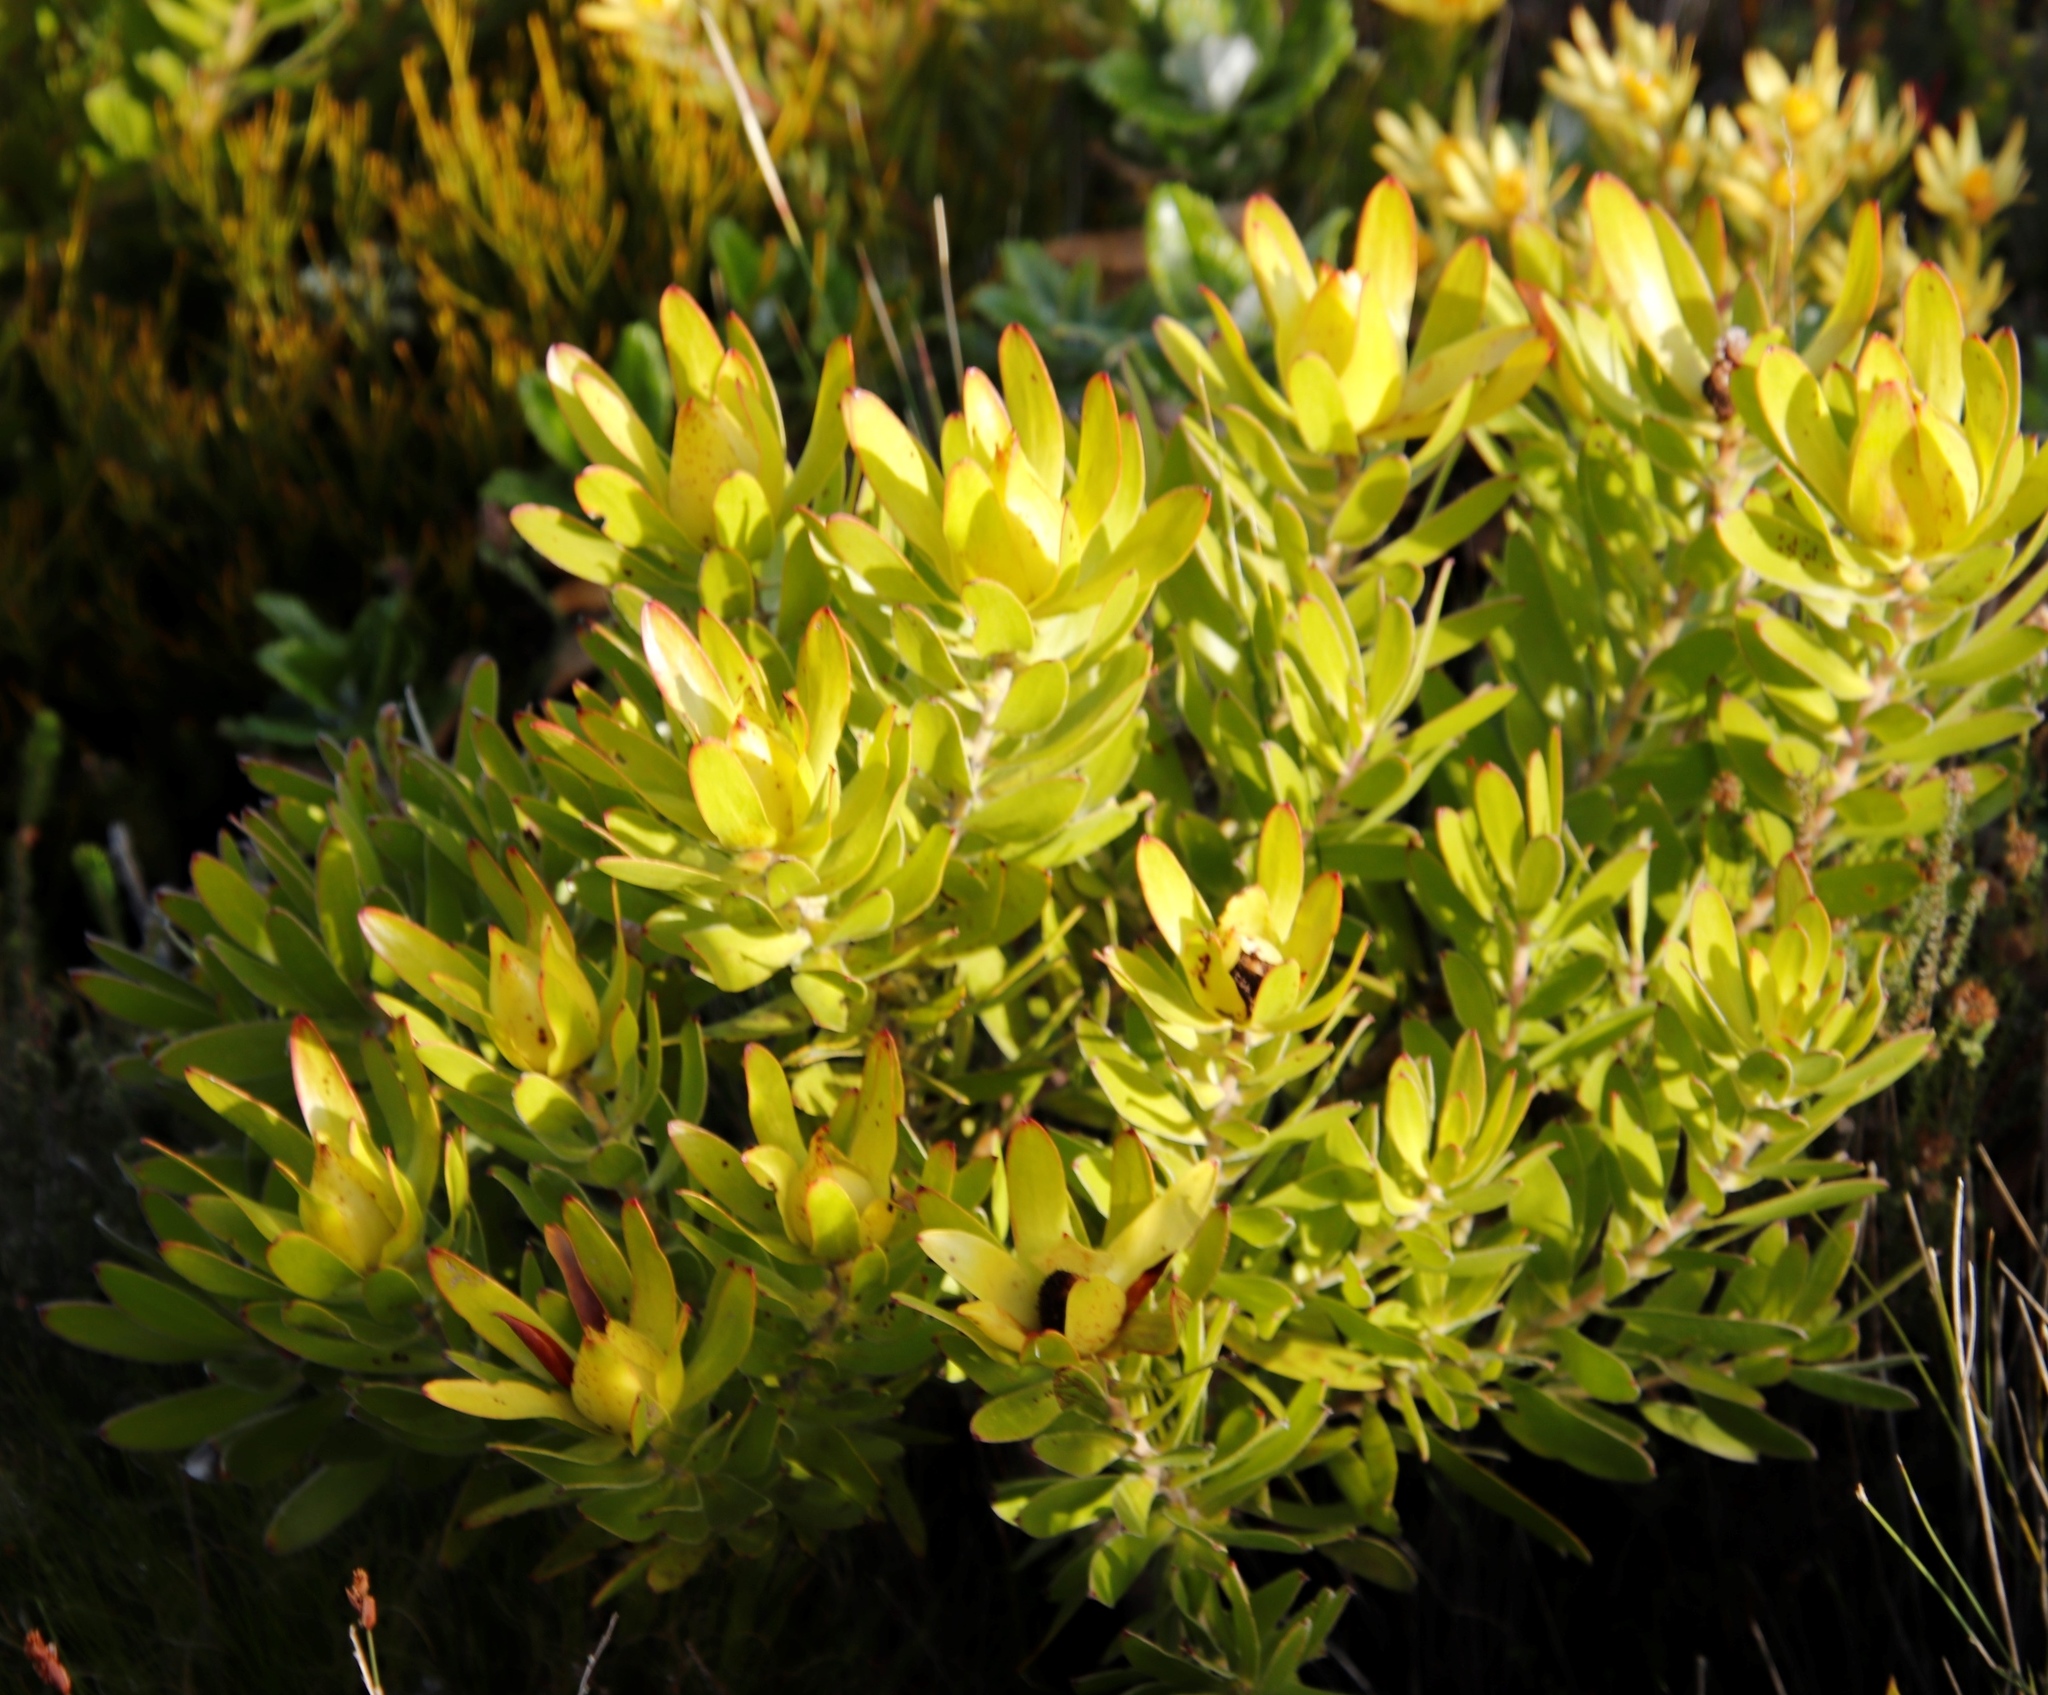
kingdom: Plantae
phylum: Tracheophyta
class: Magnoliopsida
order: Proteales
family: Proteaceae
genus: Leucadendron
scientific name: Leucadendron laureolum
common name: Golden sunshinebush
